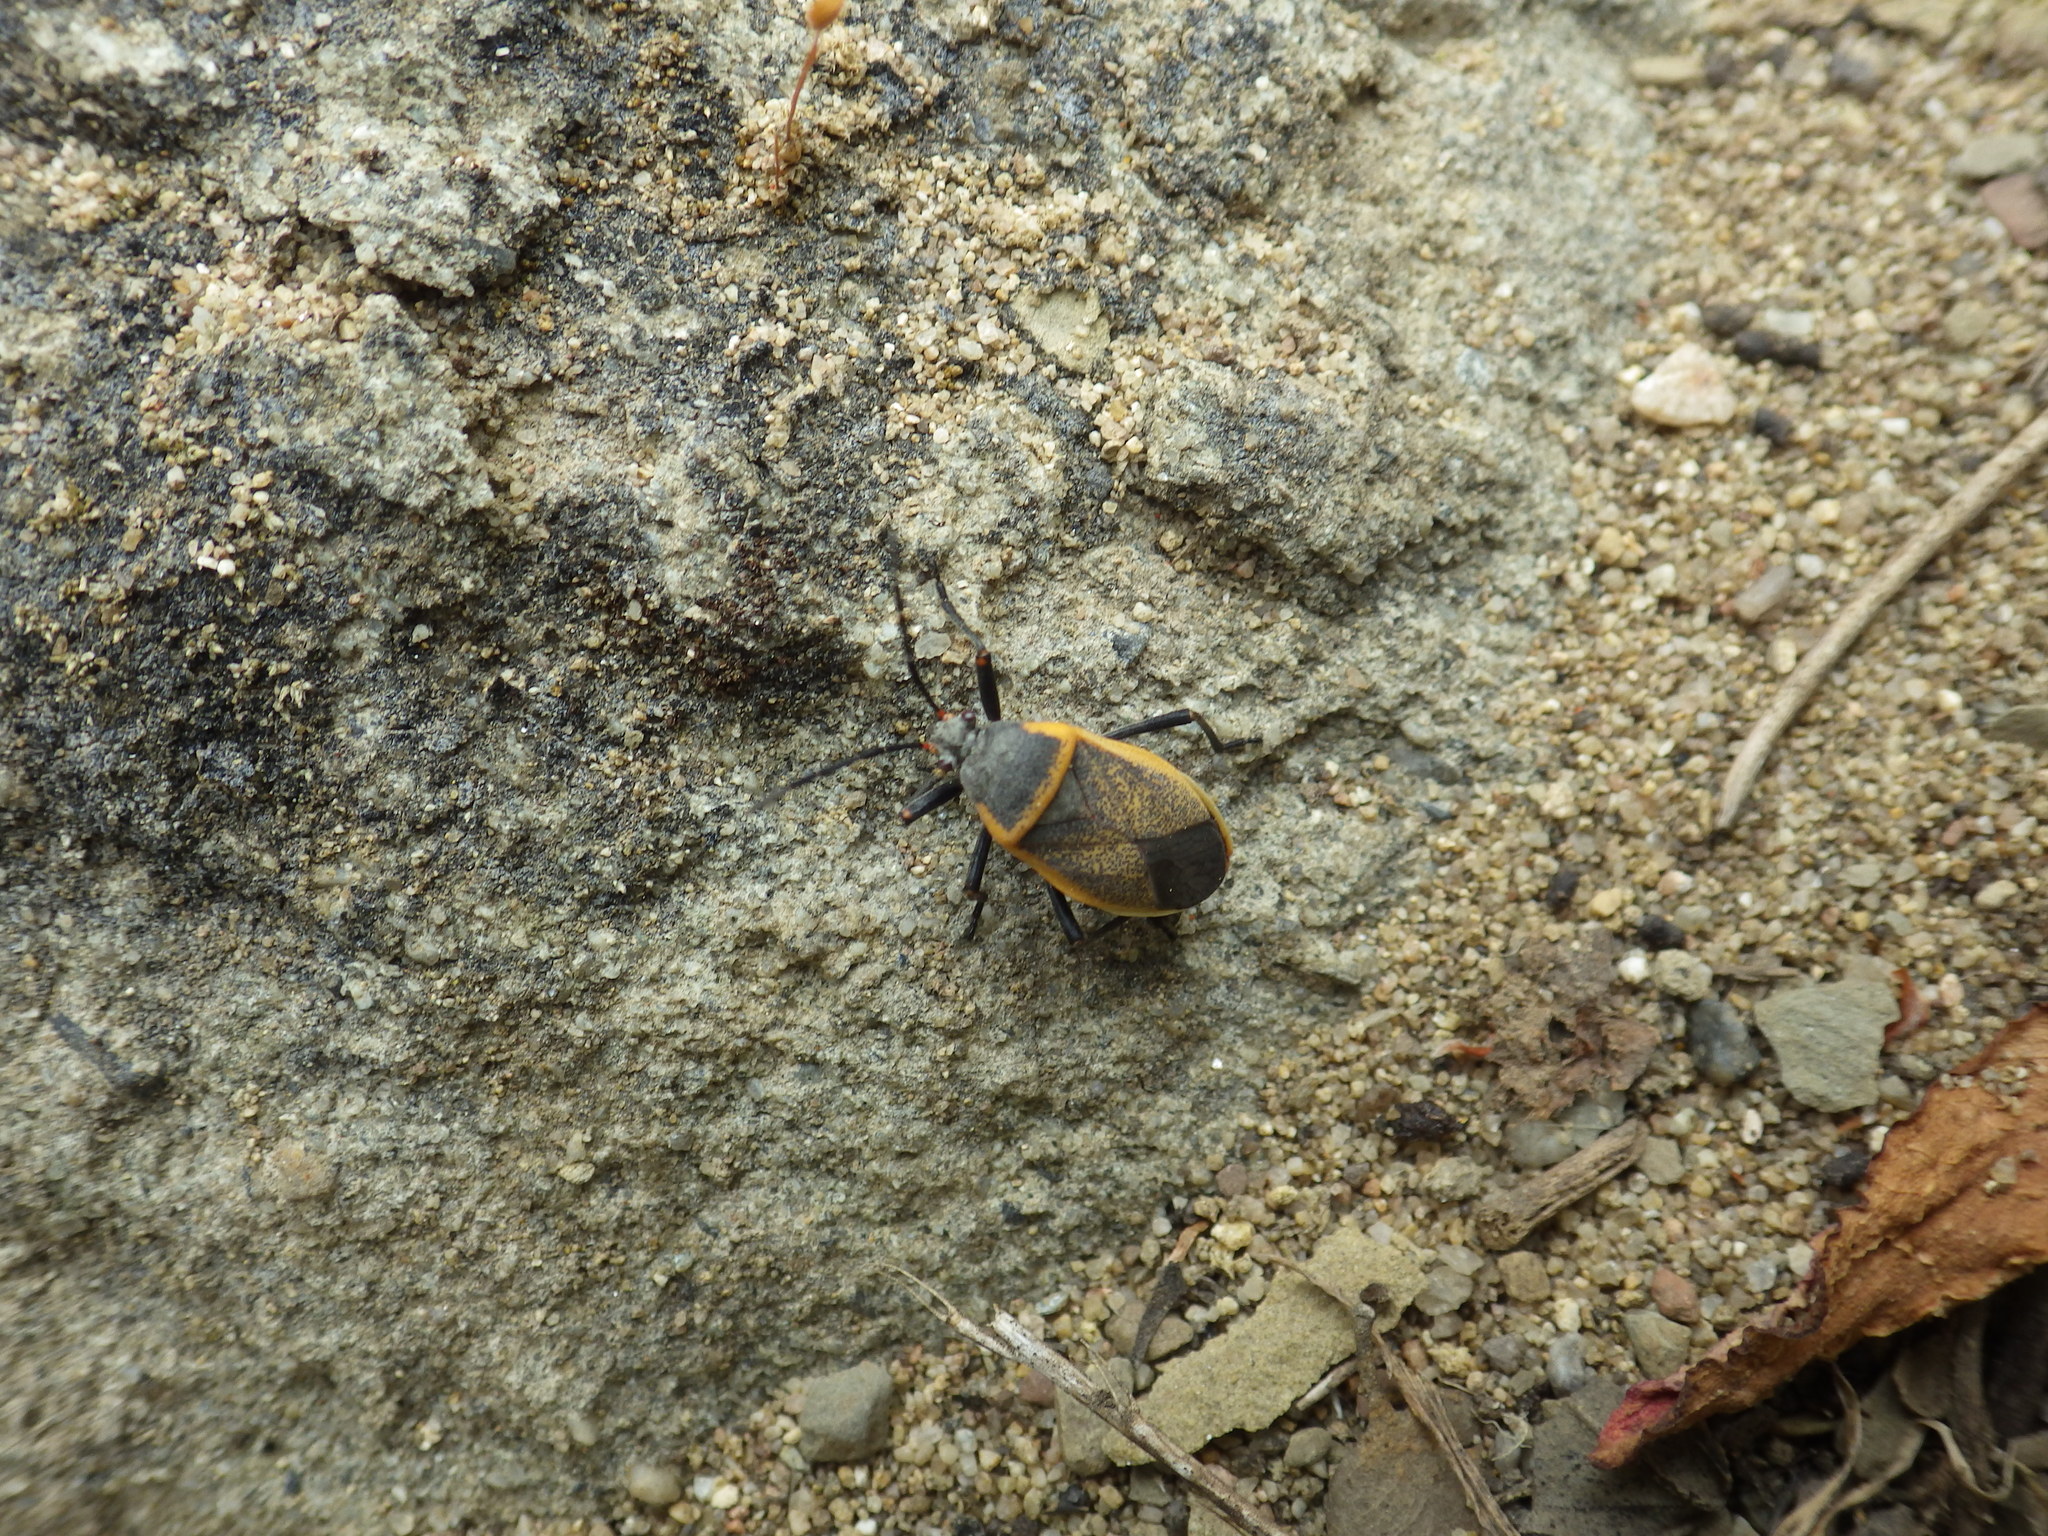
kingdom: Animalia
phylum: Arthropoda
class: Insecta
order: Hemiptera
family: Largidae
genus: Largus
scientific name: Largus californicus
